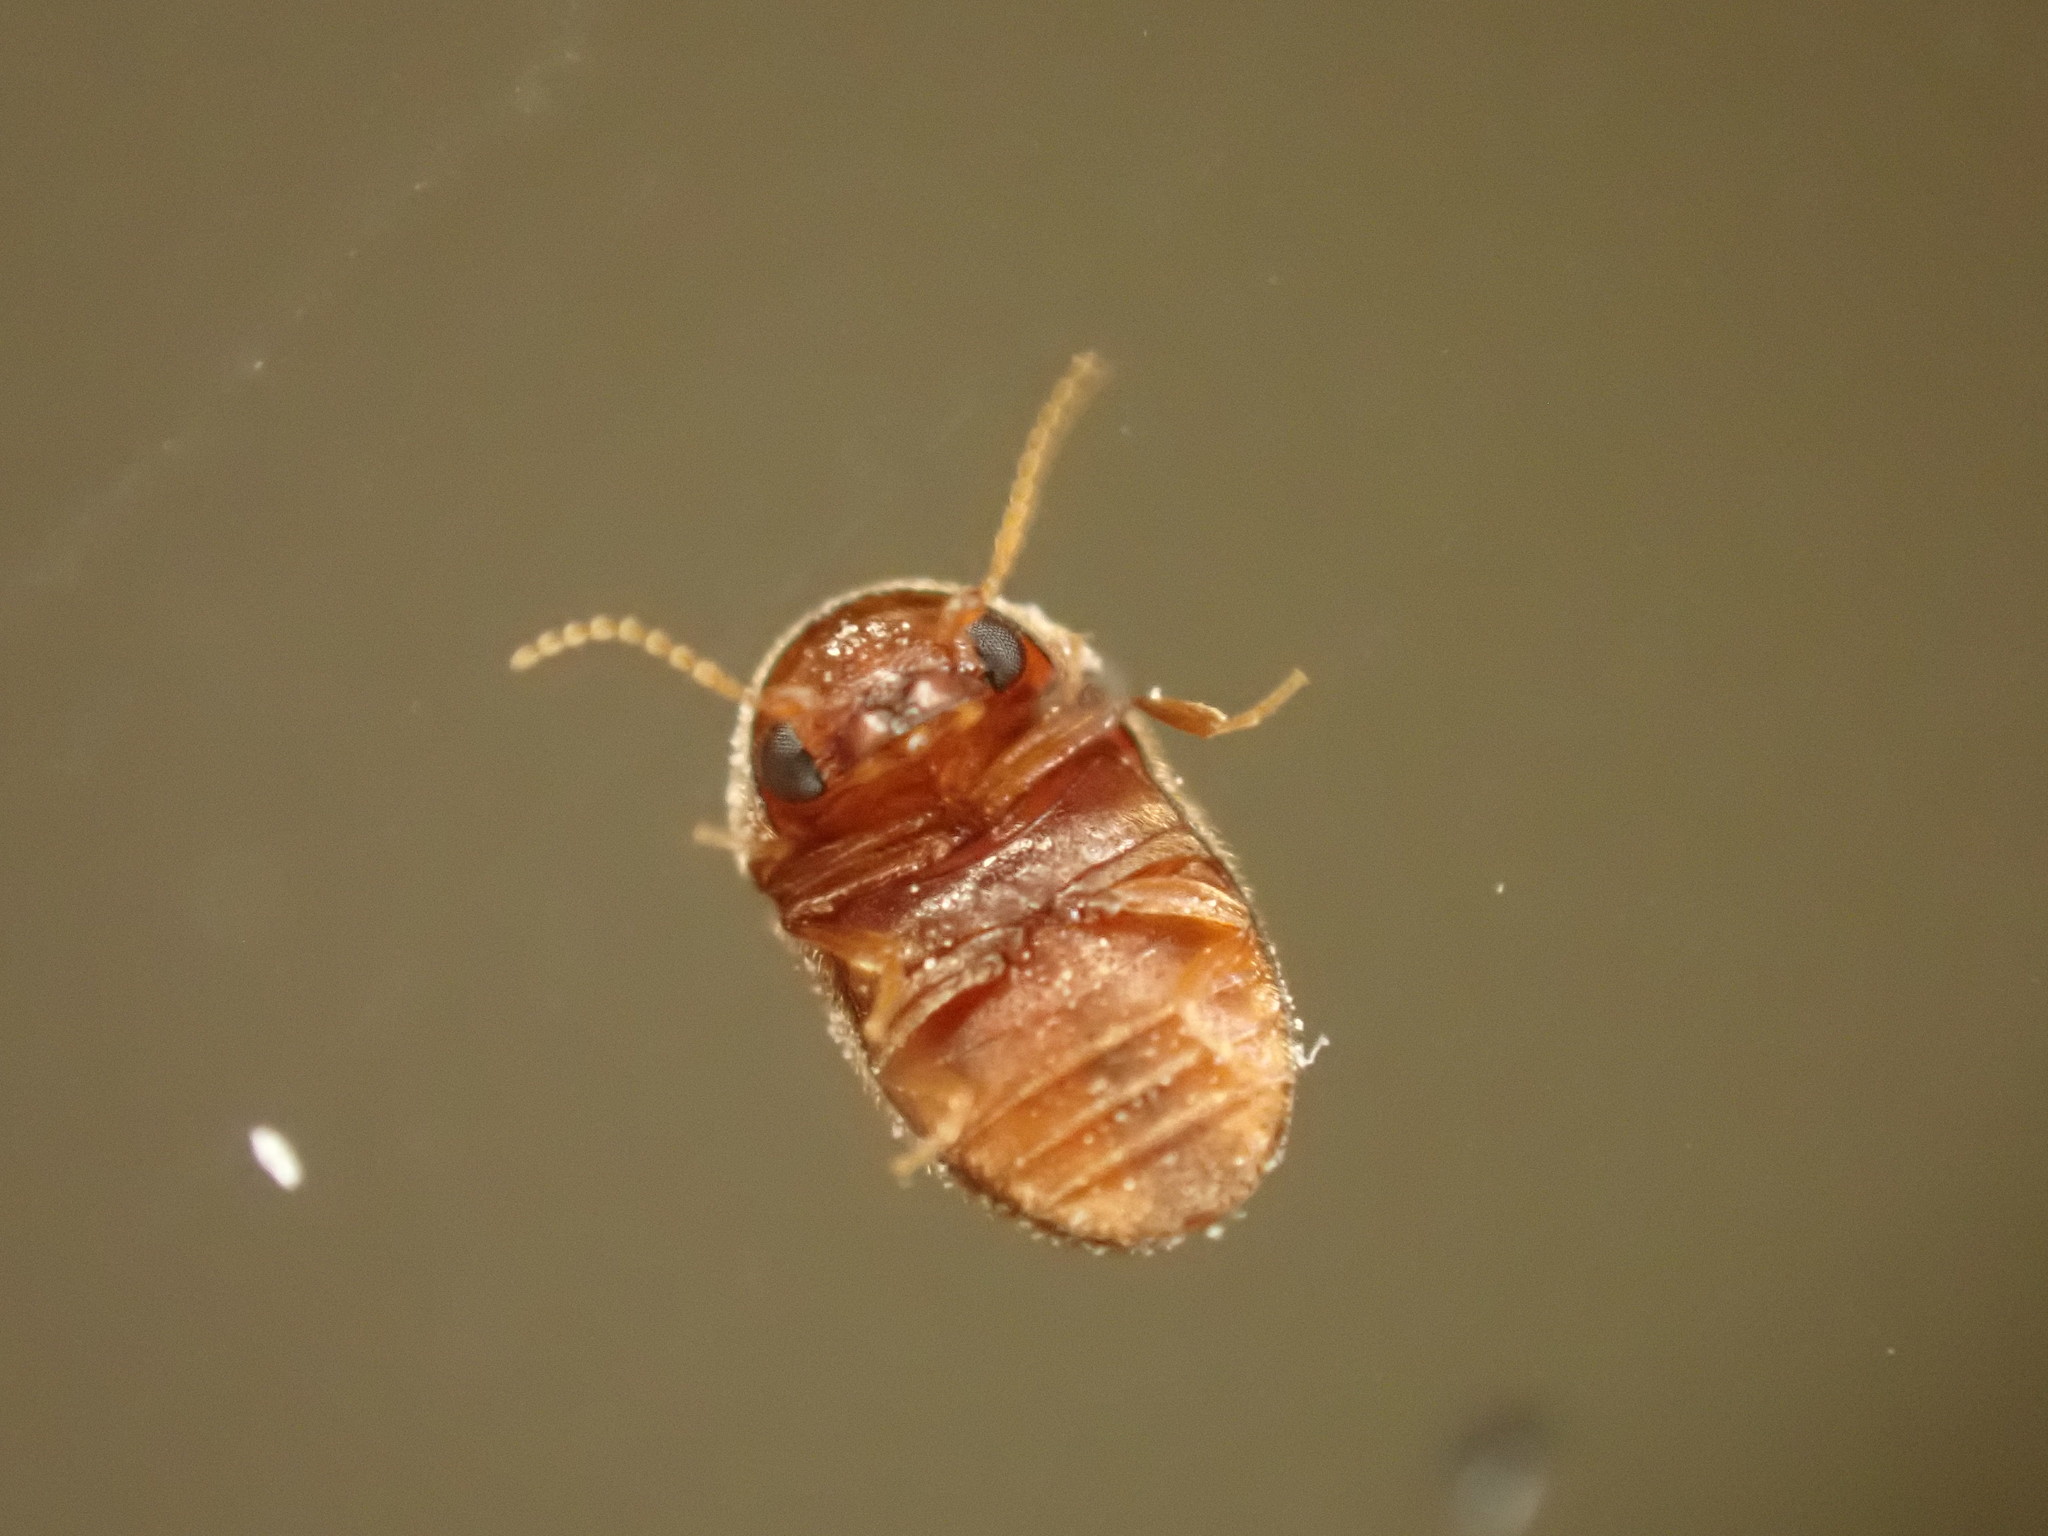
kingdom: Animalia
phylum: Arthropoda
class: Insecta
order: Coleoptera
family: Anobiidae
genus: Lasioderma
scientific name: Lasioderma serricorne
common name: Cigarette beetle
